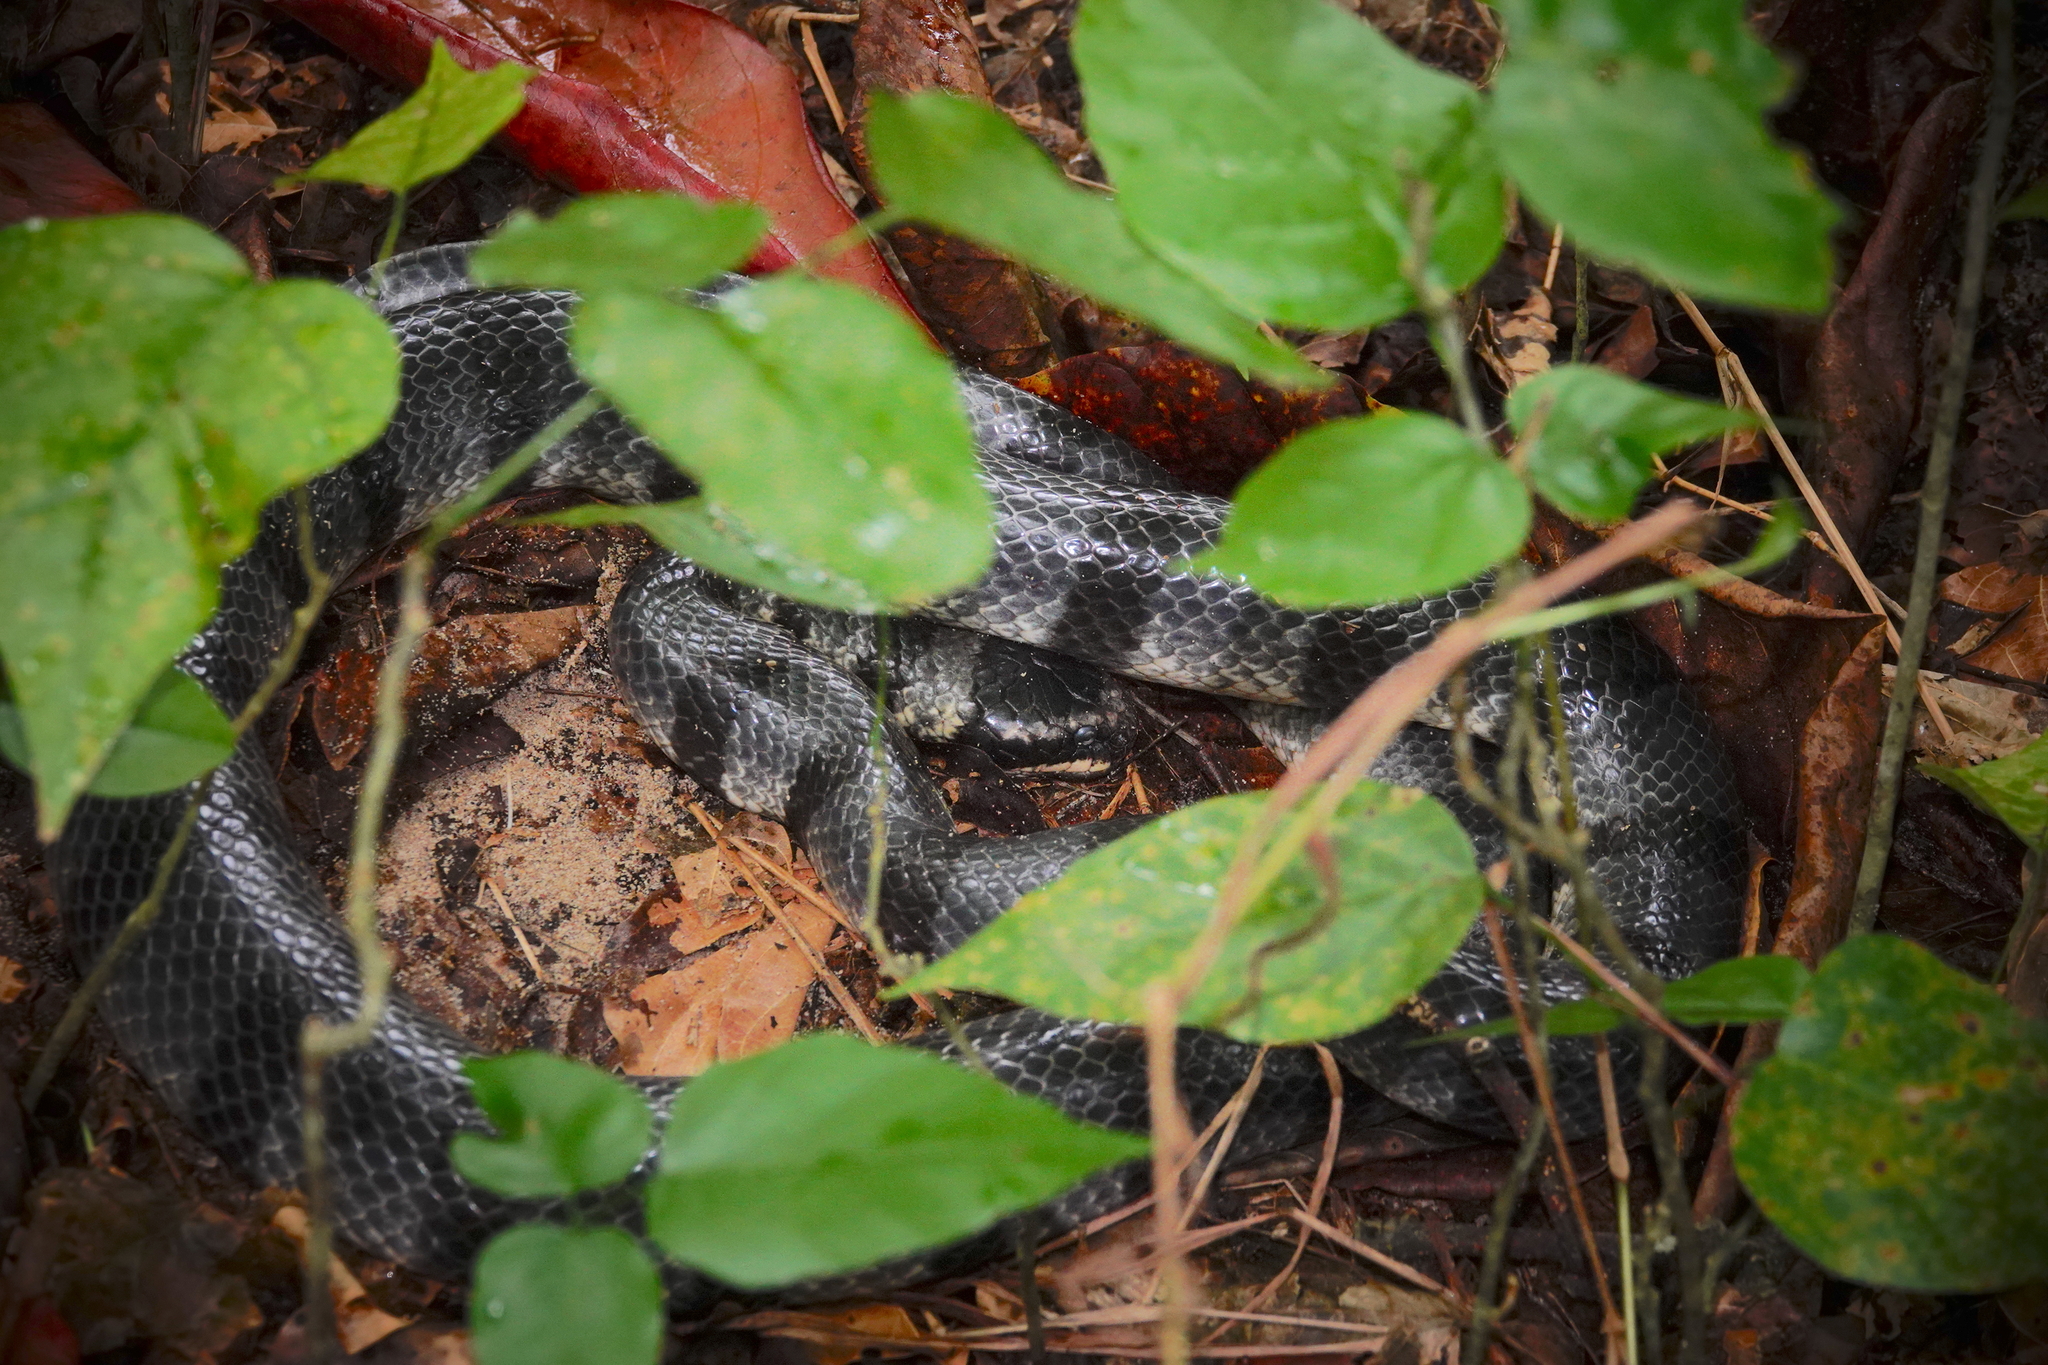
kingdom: Animalia
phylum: Chordata
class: Squamata
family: Elapidae
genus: Laticauda
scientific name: Laticauda colubrina
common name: Yellow-lipped sea krait
